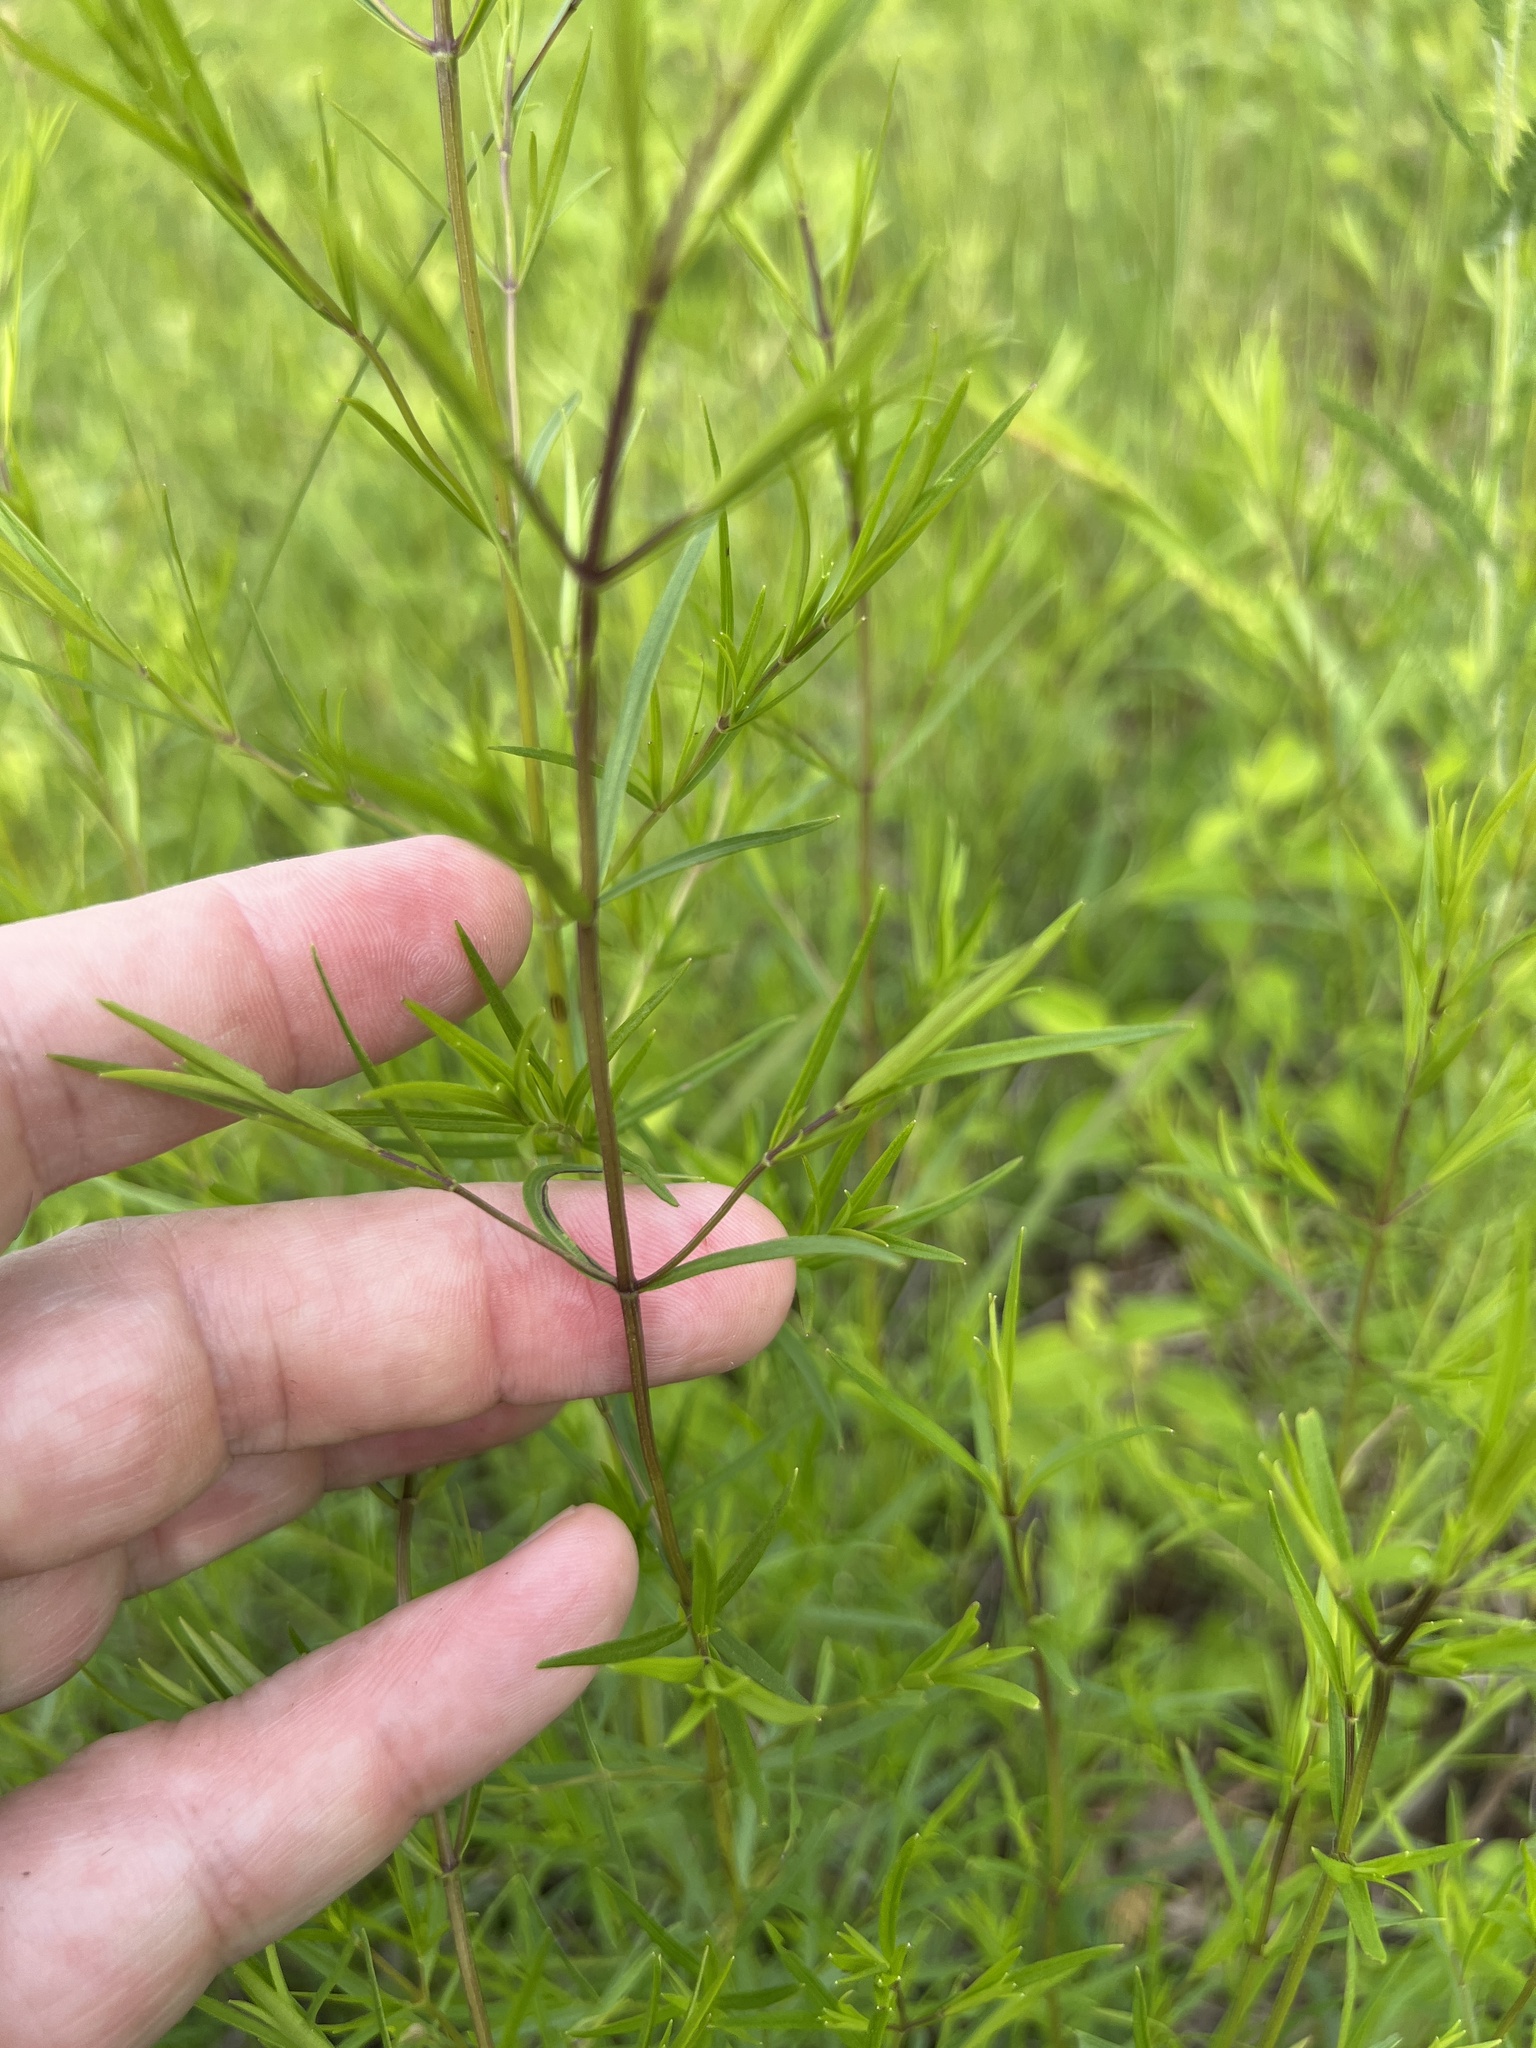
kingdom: Plantae
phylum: Tracheophyta
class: Magnoliopsida
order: Lamiales
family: Lamiaceae
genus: Pycnanthemum
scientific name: Pycnanthemum tenuifolium
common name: Narrow-leaf mountain-mint
